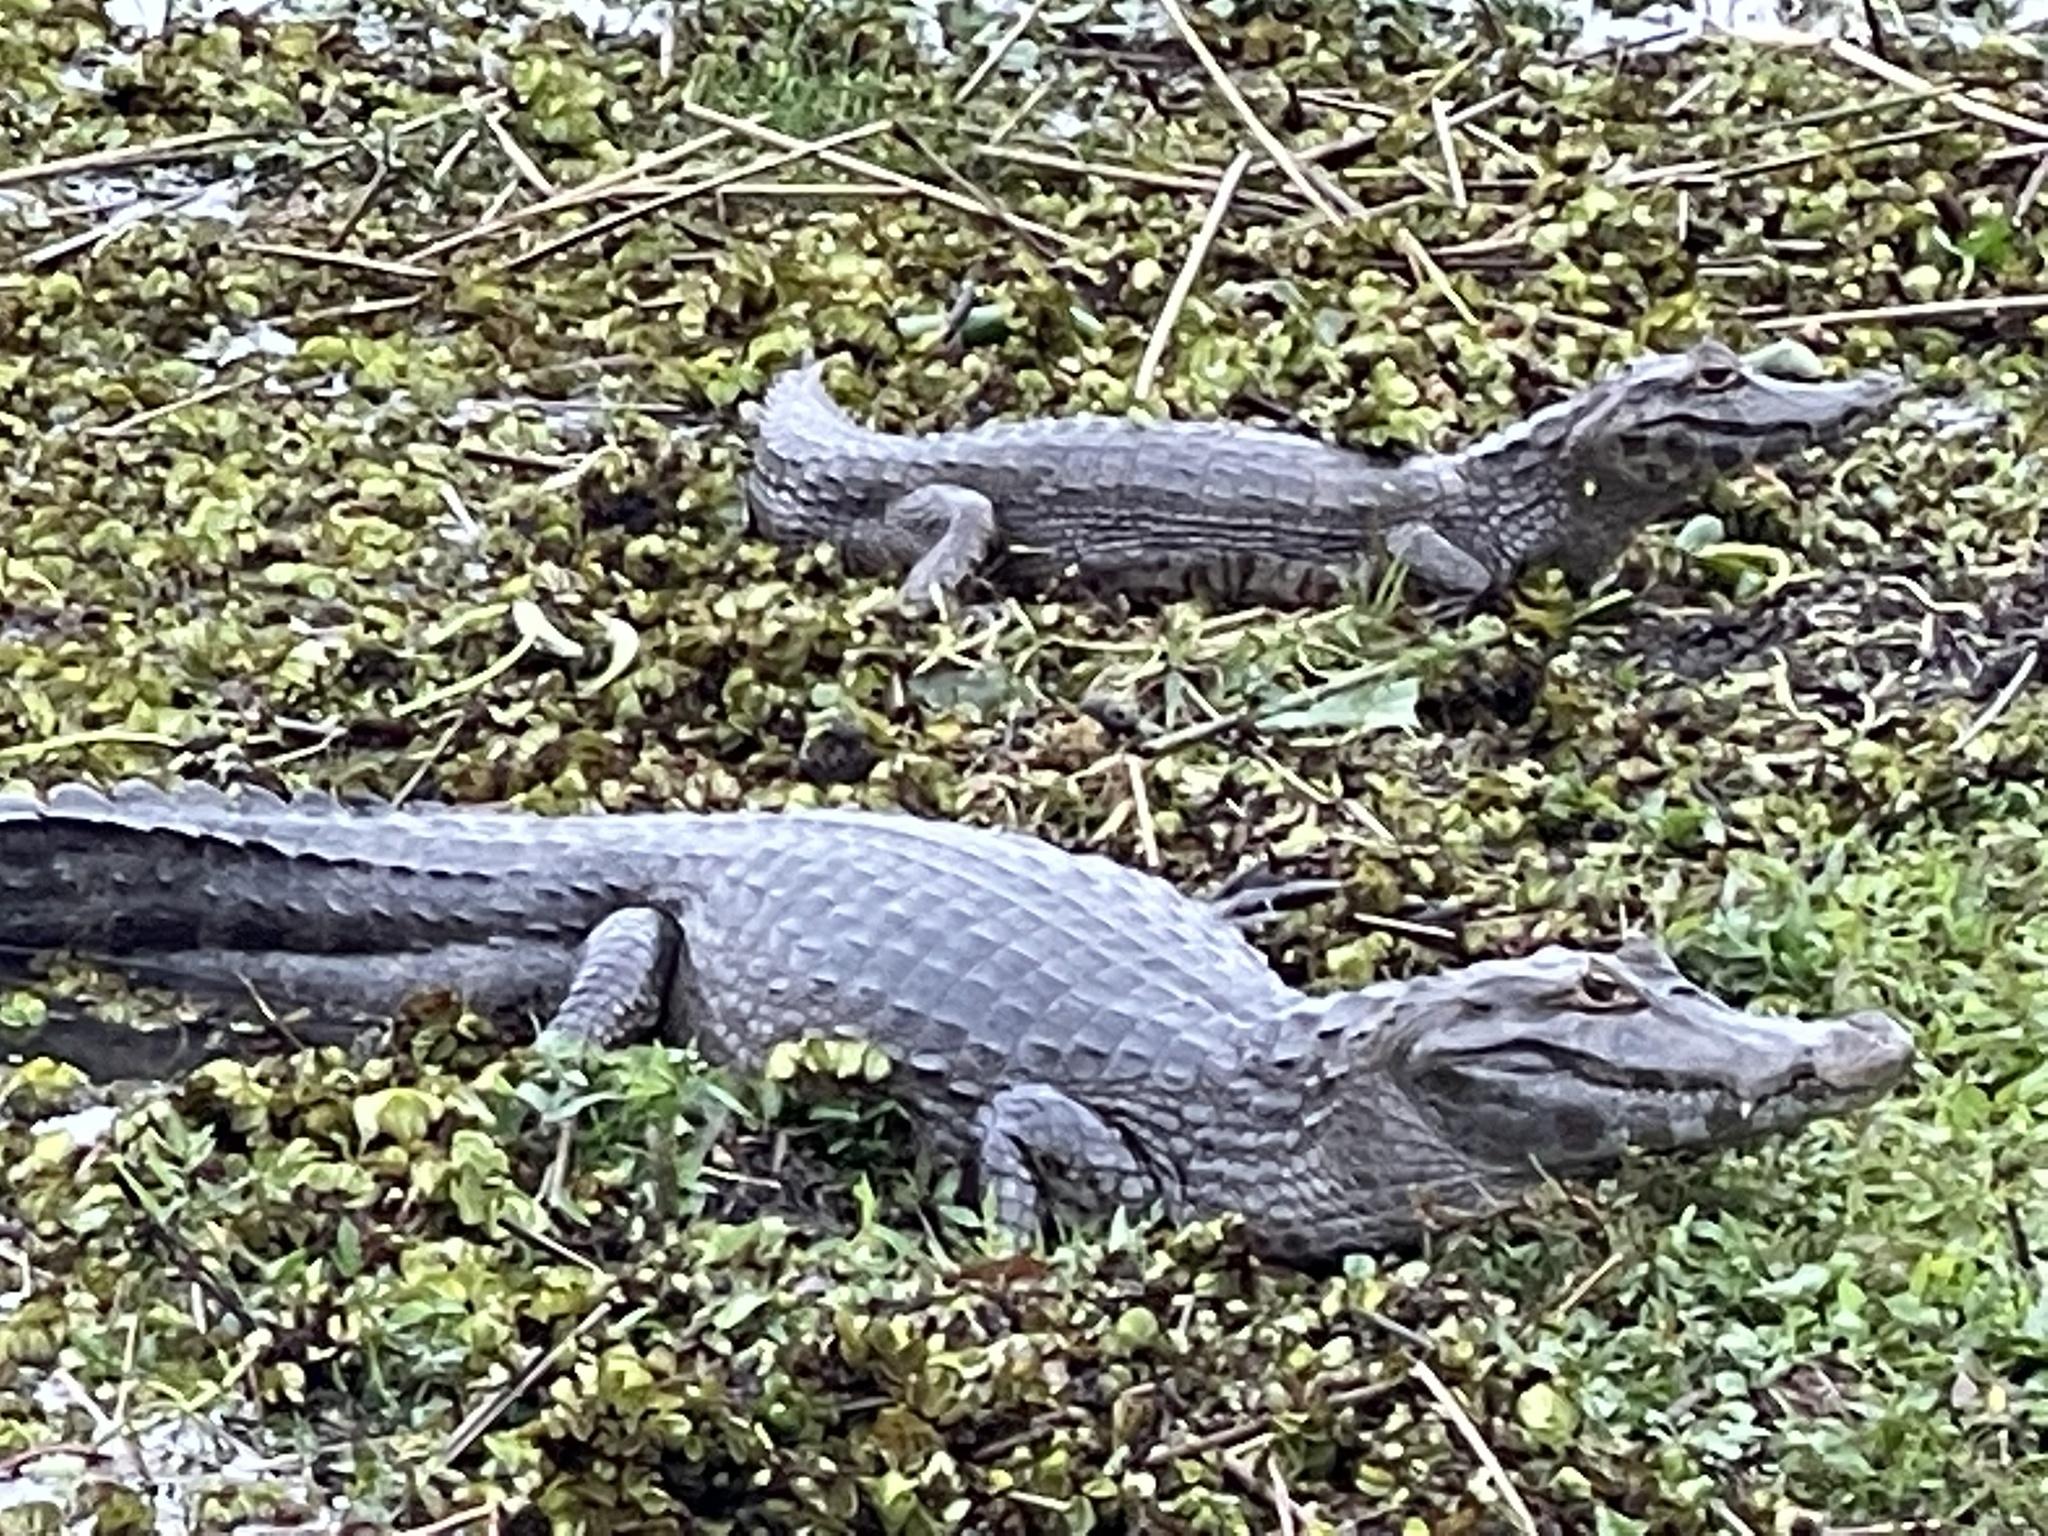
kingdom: Animalia
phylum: Chordata
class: Crocodylia
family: Alligatoridae
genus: Caiman
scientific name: Caiman yacare
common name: Yacare caiman
